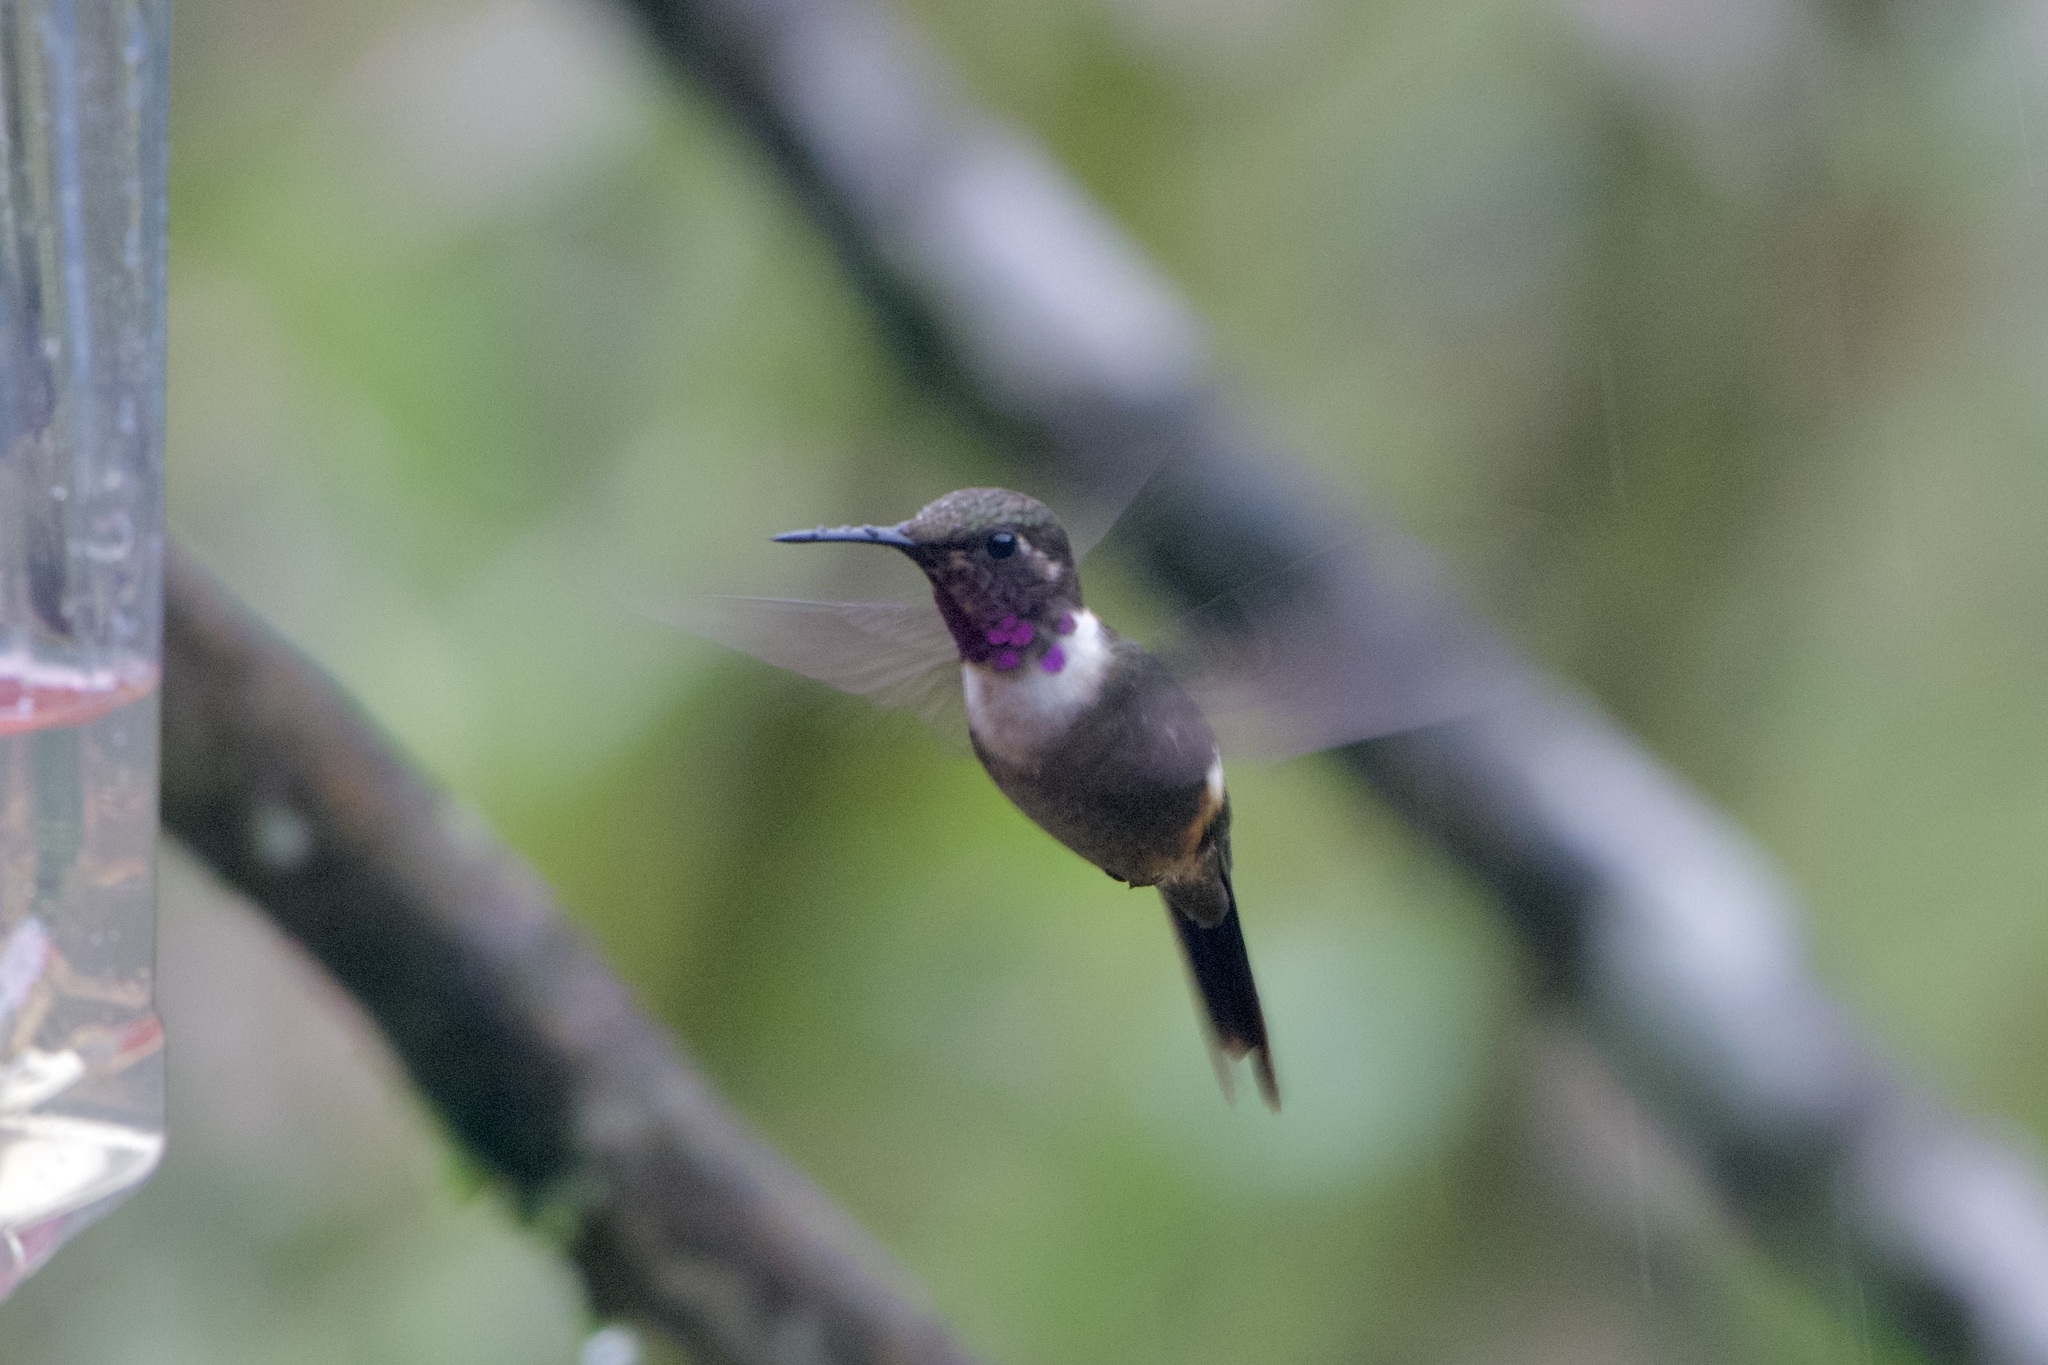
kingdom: Animalia
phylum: Chordata
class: Aves
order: Apodiformes
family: Trochilidae
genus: Calliphlox
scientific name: Calliphlox mitchellii
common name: Purple-throated woodstar
